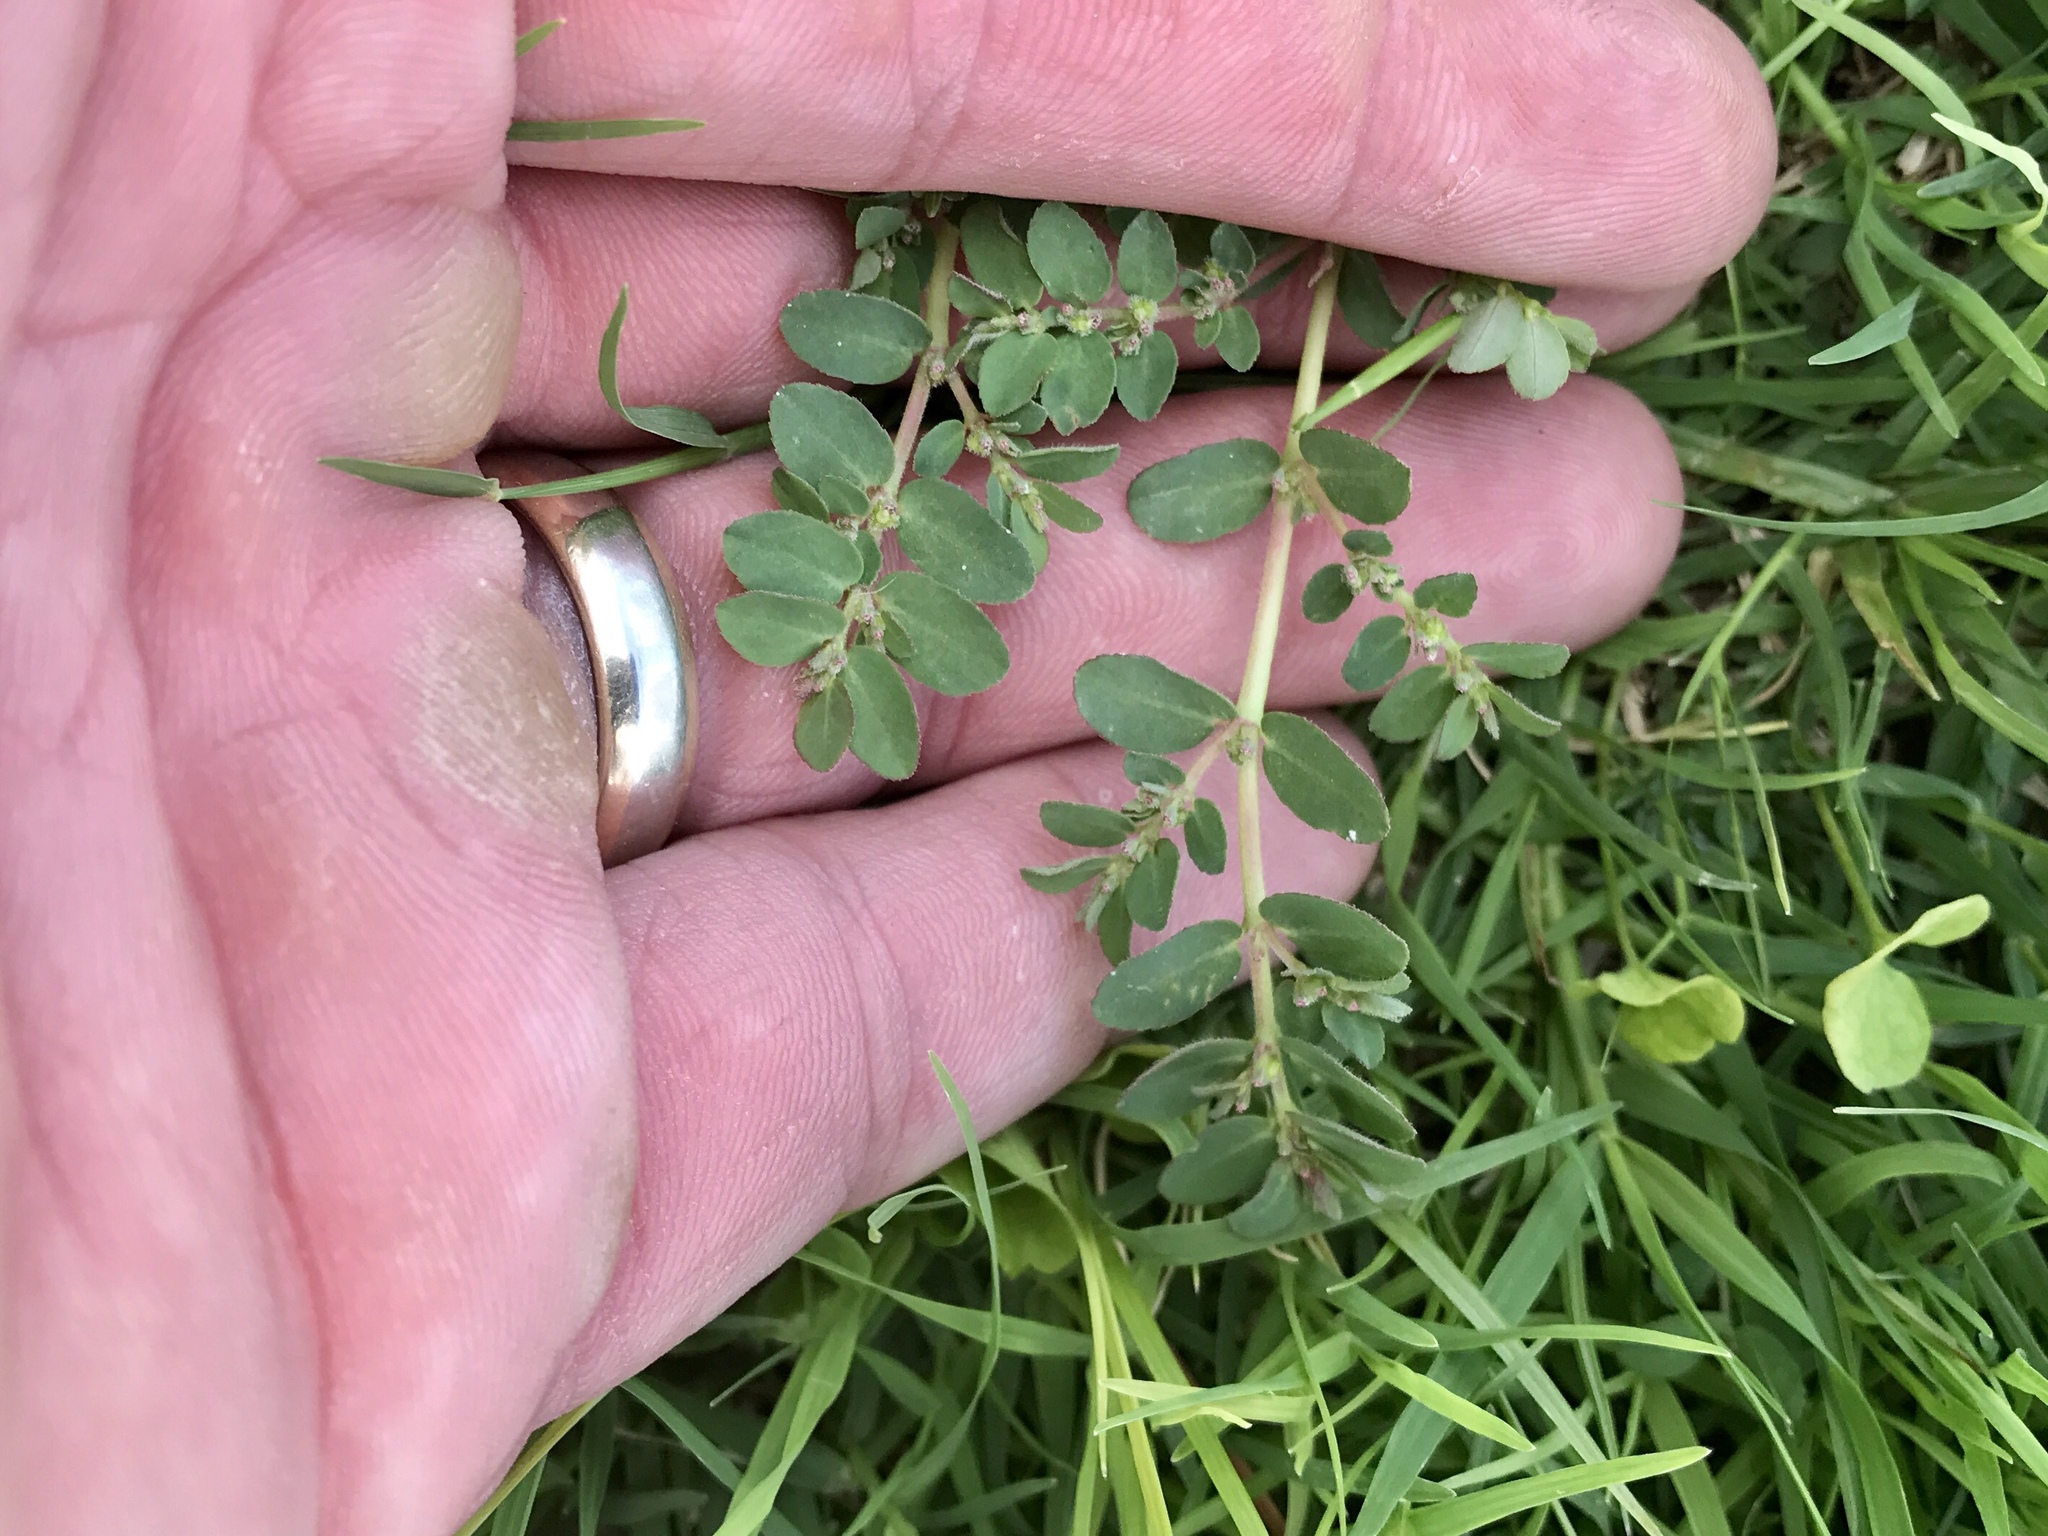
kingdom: Plantae
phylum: Tracheophyta
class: Magnoliopsida
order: Malpighiales
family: Euphorbiaceae
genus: Euphorbia
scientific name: Euphorbia prostrata
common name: Prostrate sandmat
